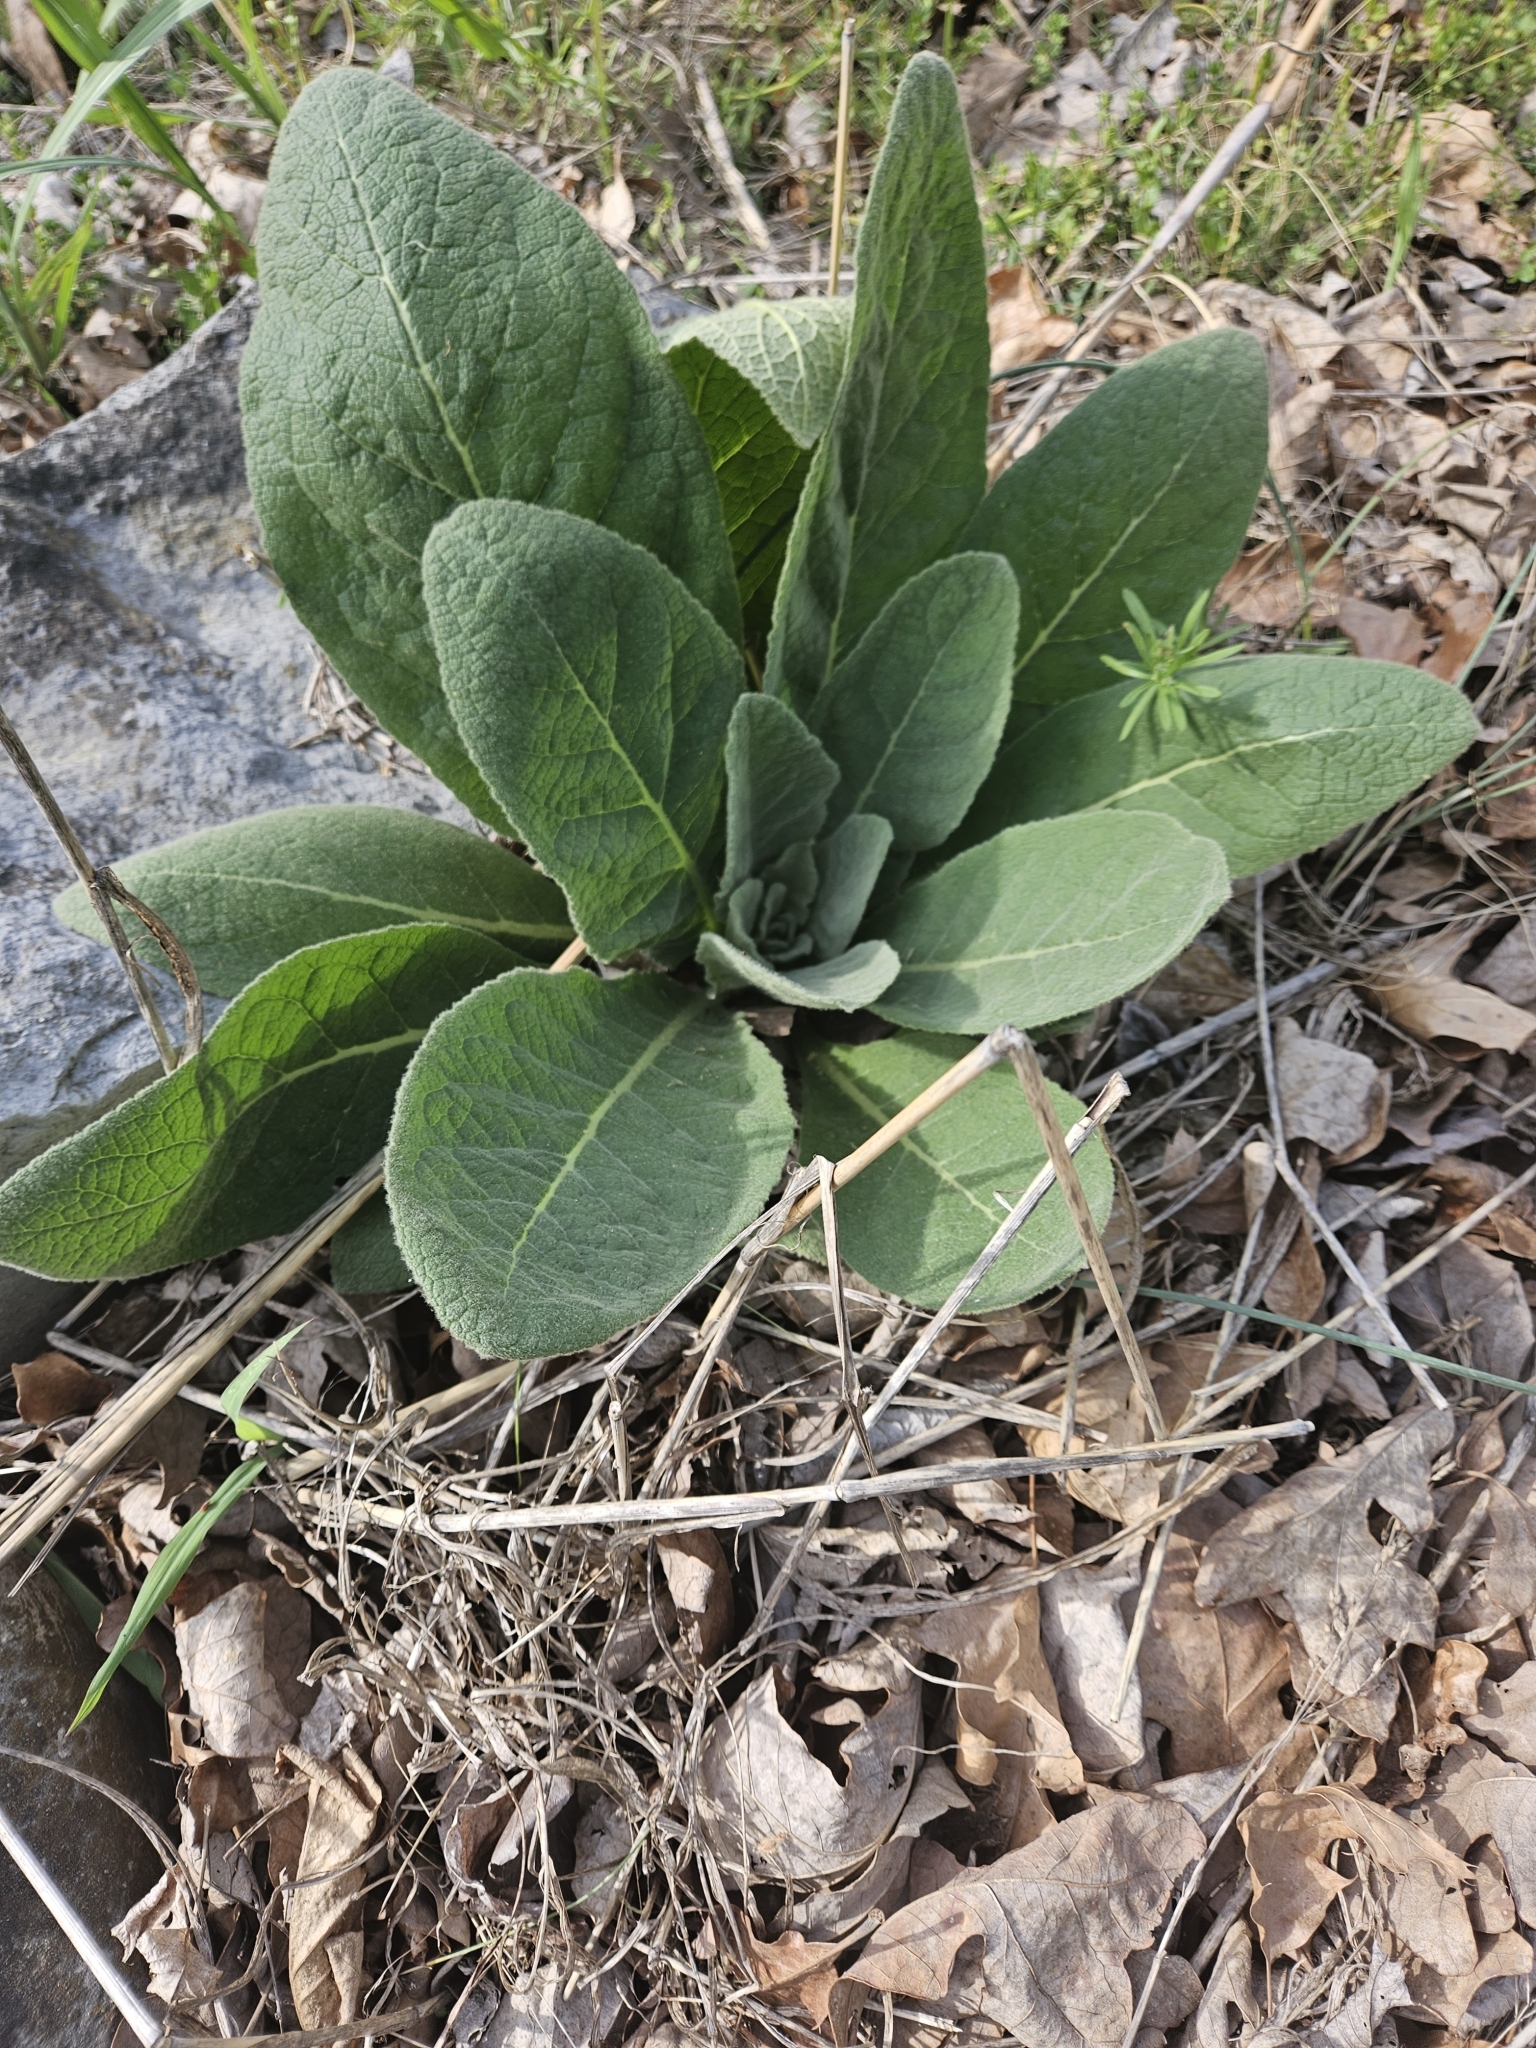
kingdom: Plantae
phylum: Tracheophyta
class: Magnoliopsida
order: Lamiales
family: Scrophulariaceae
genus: Verbascum
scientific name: Verbascum thapsus
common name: Common mullein
